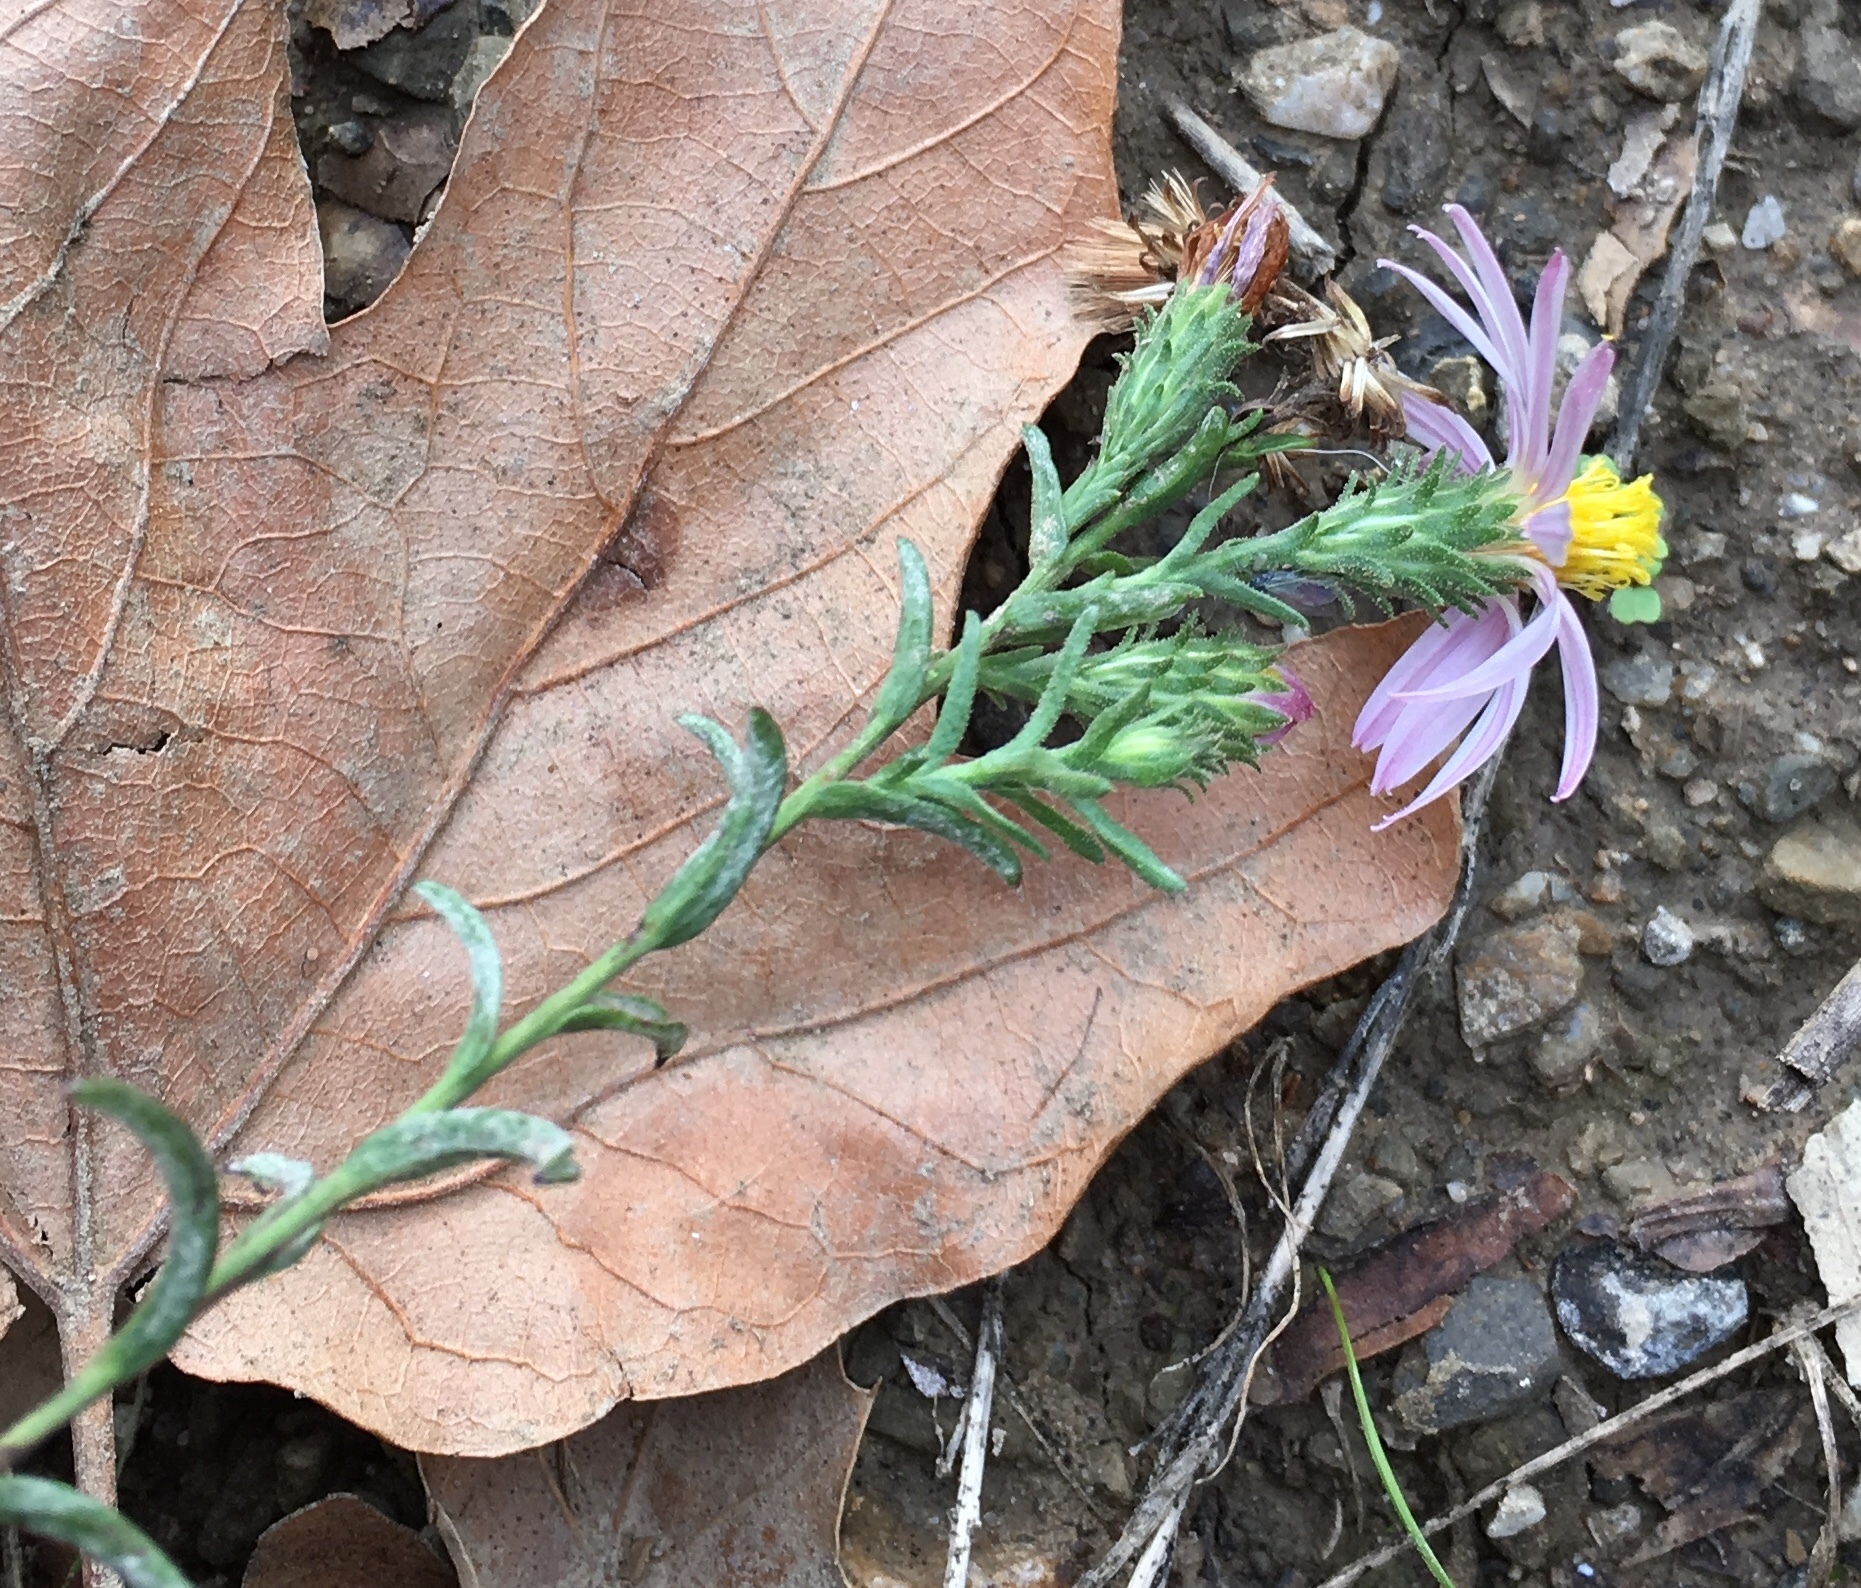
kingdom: Plantae
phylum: Tracheophyta
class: Magnoliopsida
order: Asterales
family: Asteraceae
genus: Corethrogyne
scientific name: Corethrogyne filaginifolia
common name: Sand-aster
